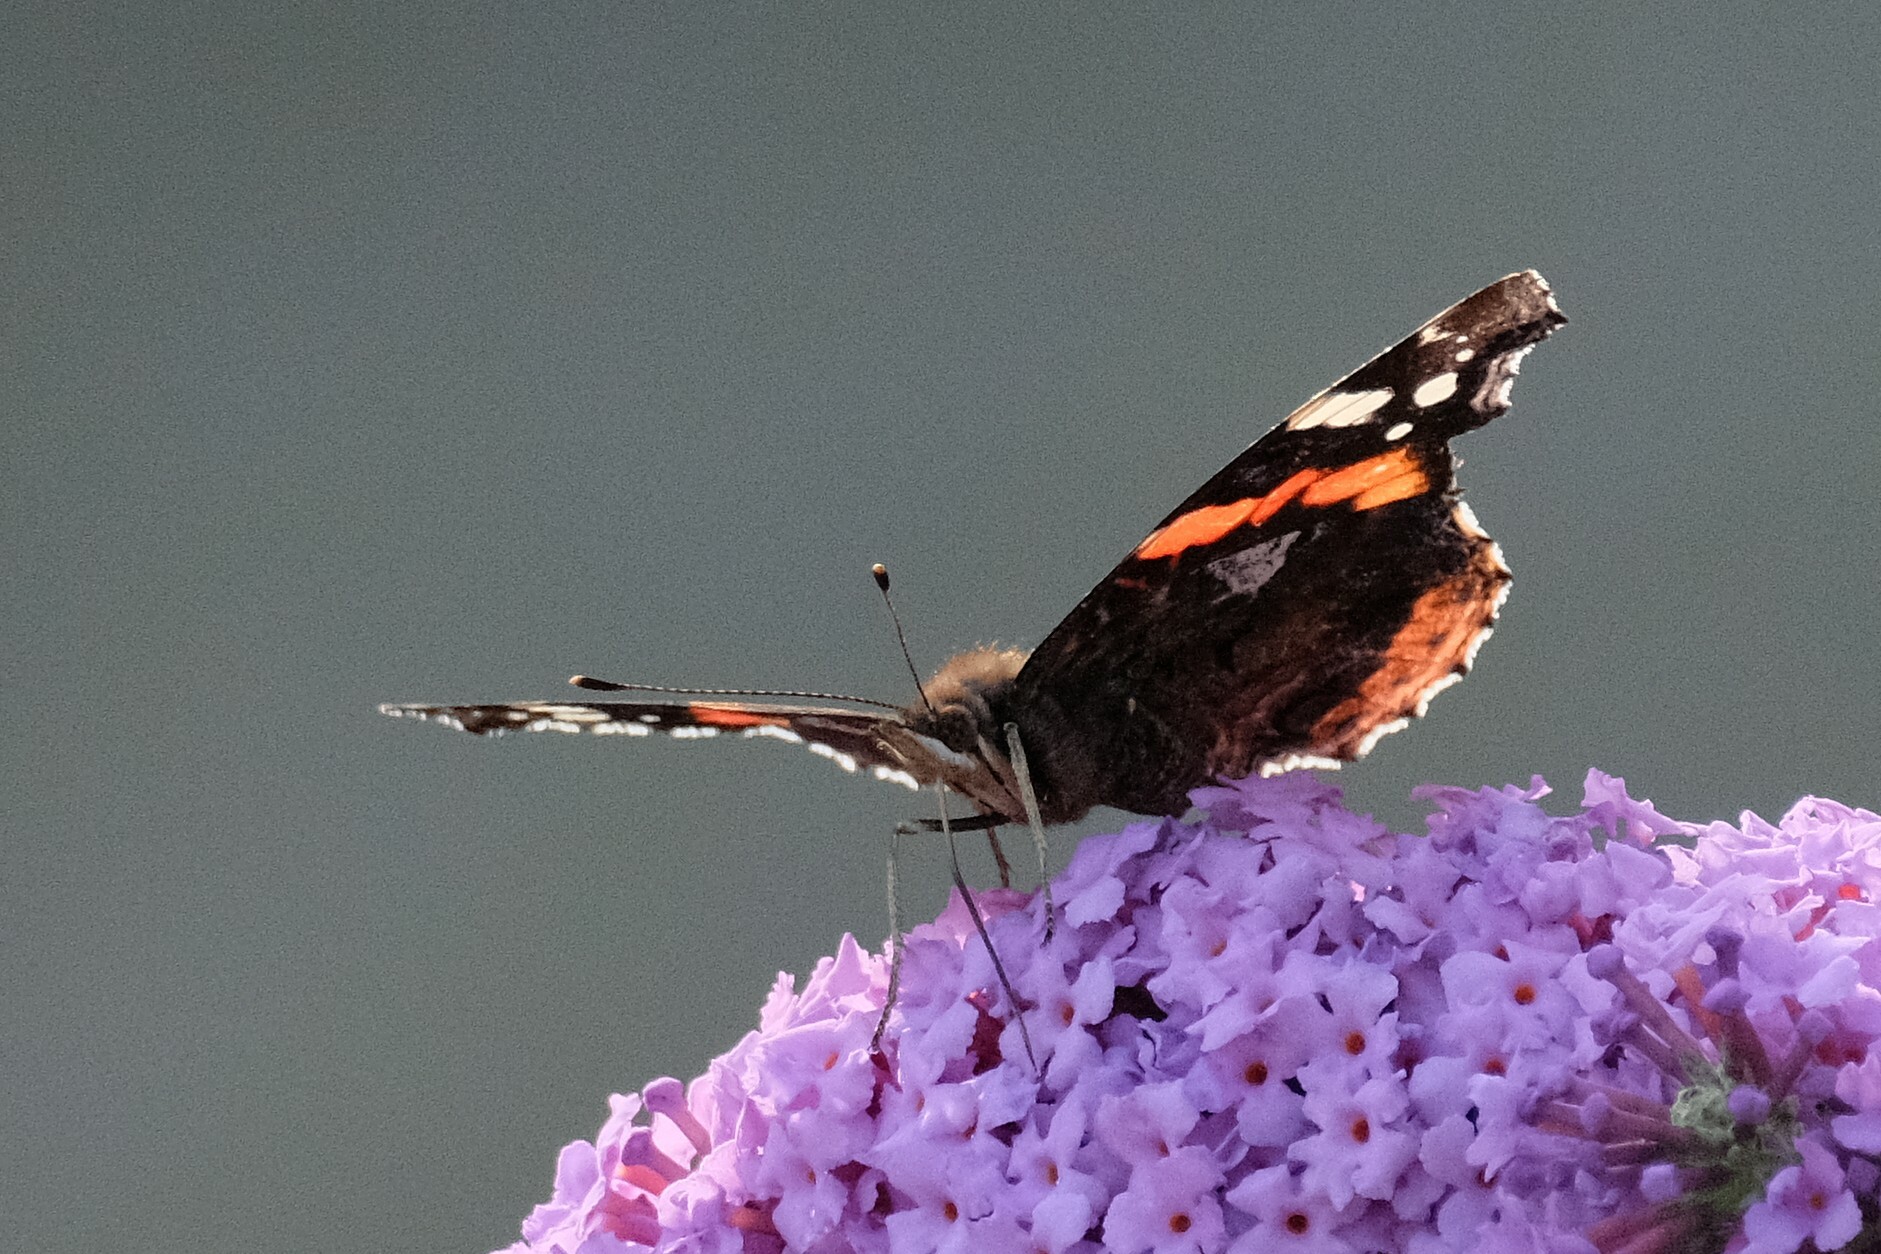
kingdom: Animalia
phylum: Arthropoda
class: Insecta
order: Lepidoptera
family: Nymphalidae
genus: Vanessa
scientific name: Vanessa atalanta
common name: Red admiral
